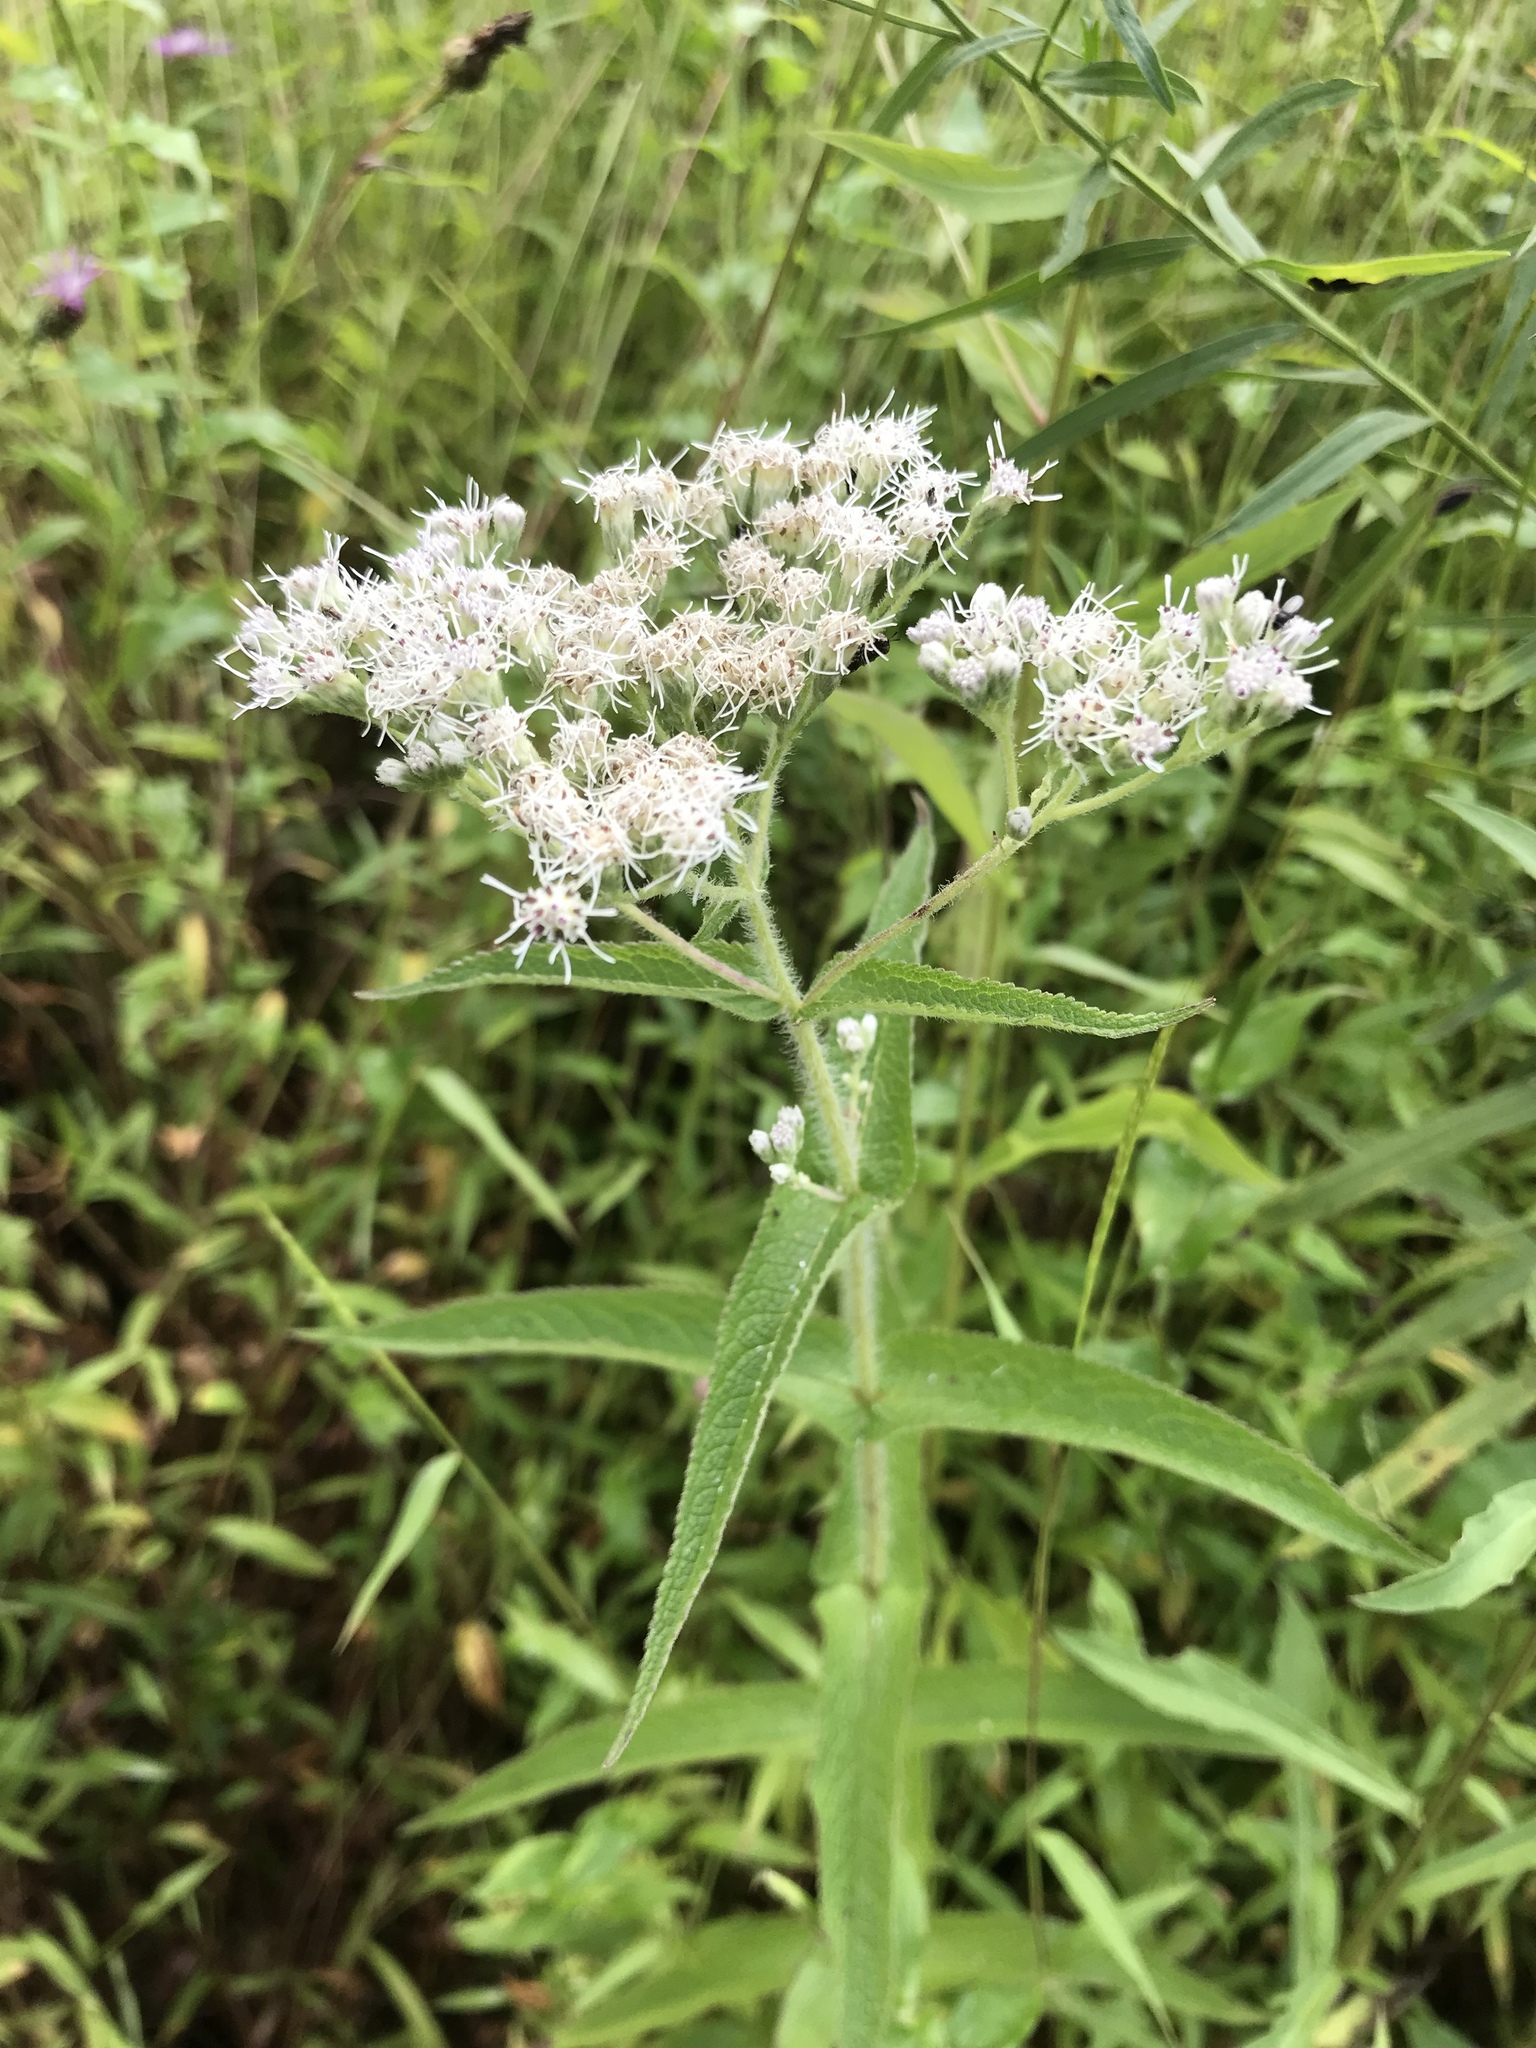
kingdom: Plantae
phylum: Tracheophyta
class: Magnoliopsida
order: Asterales
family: Asteraceae
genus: Eupatorium
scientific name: Eupatorium perfoliatum
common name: Boneset
